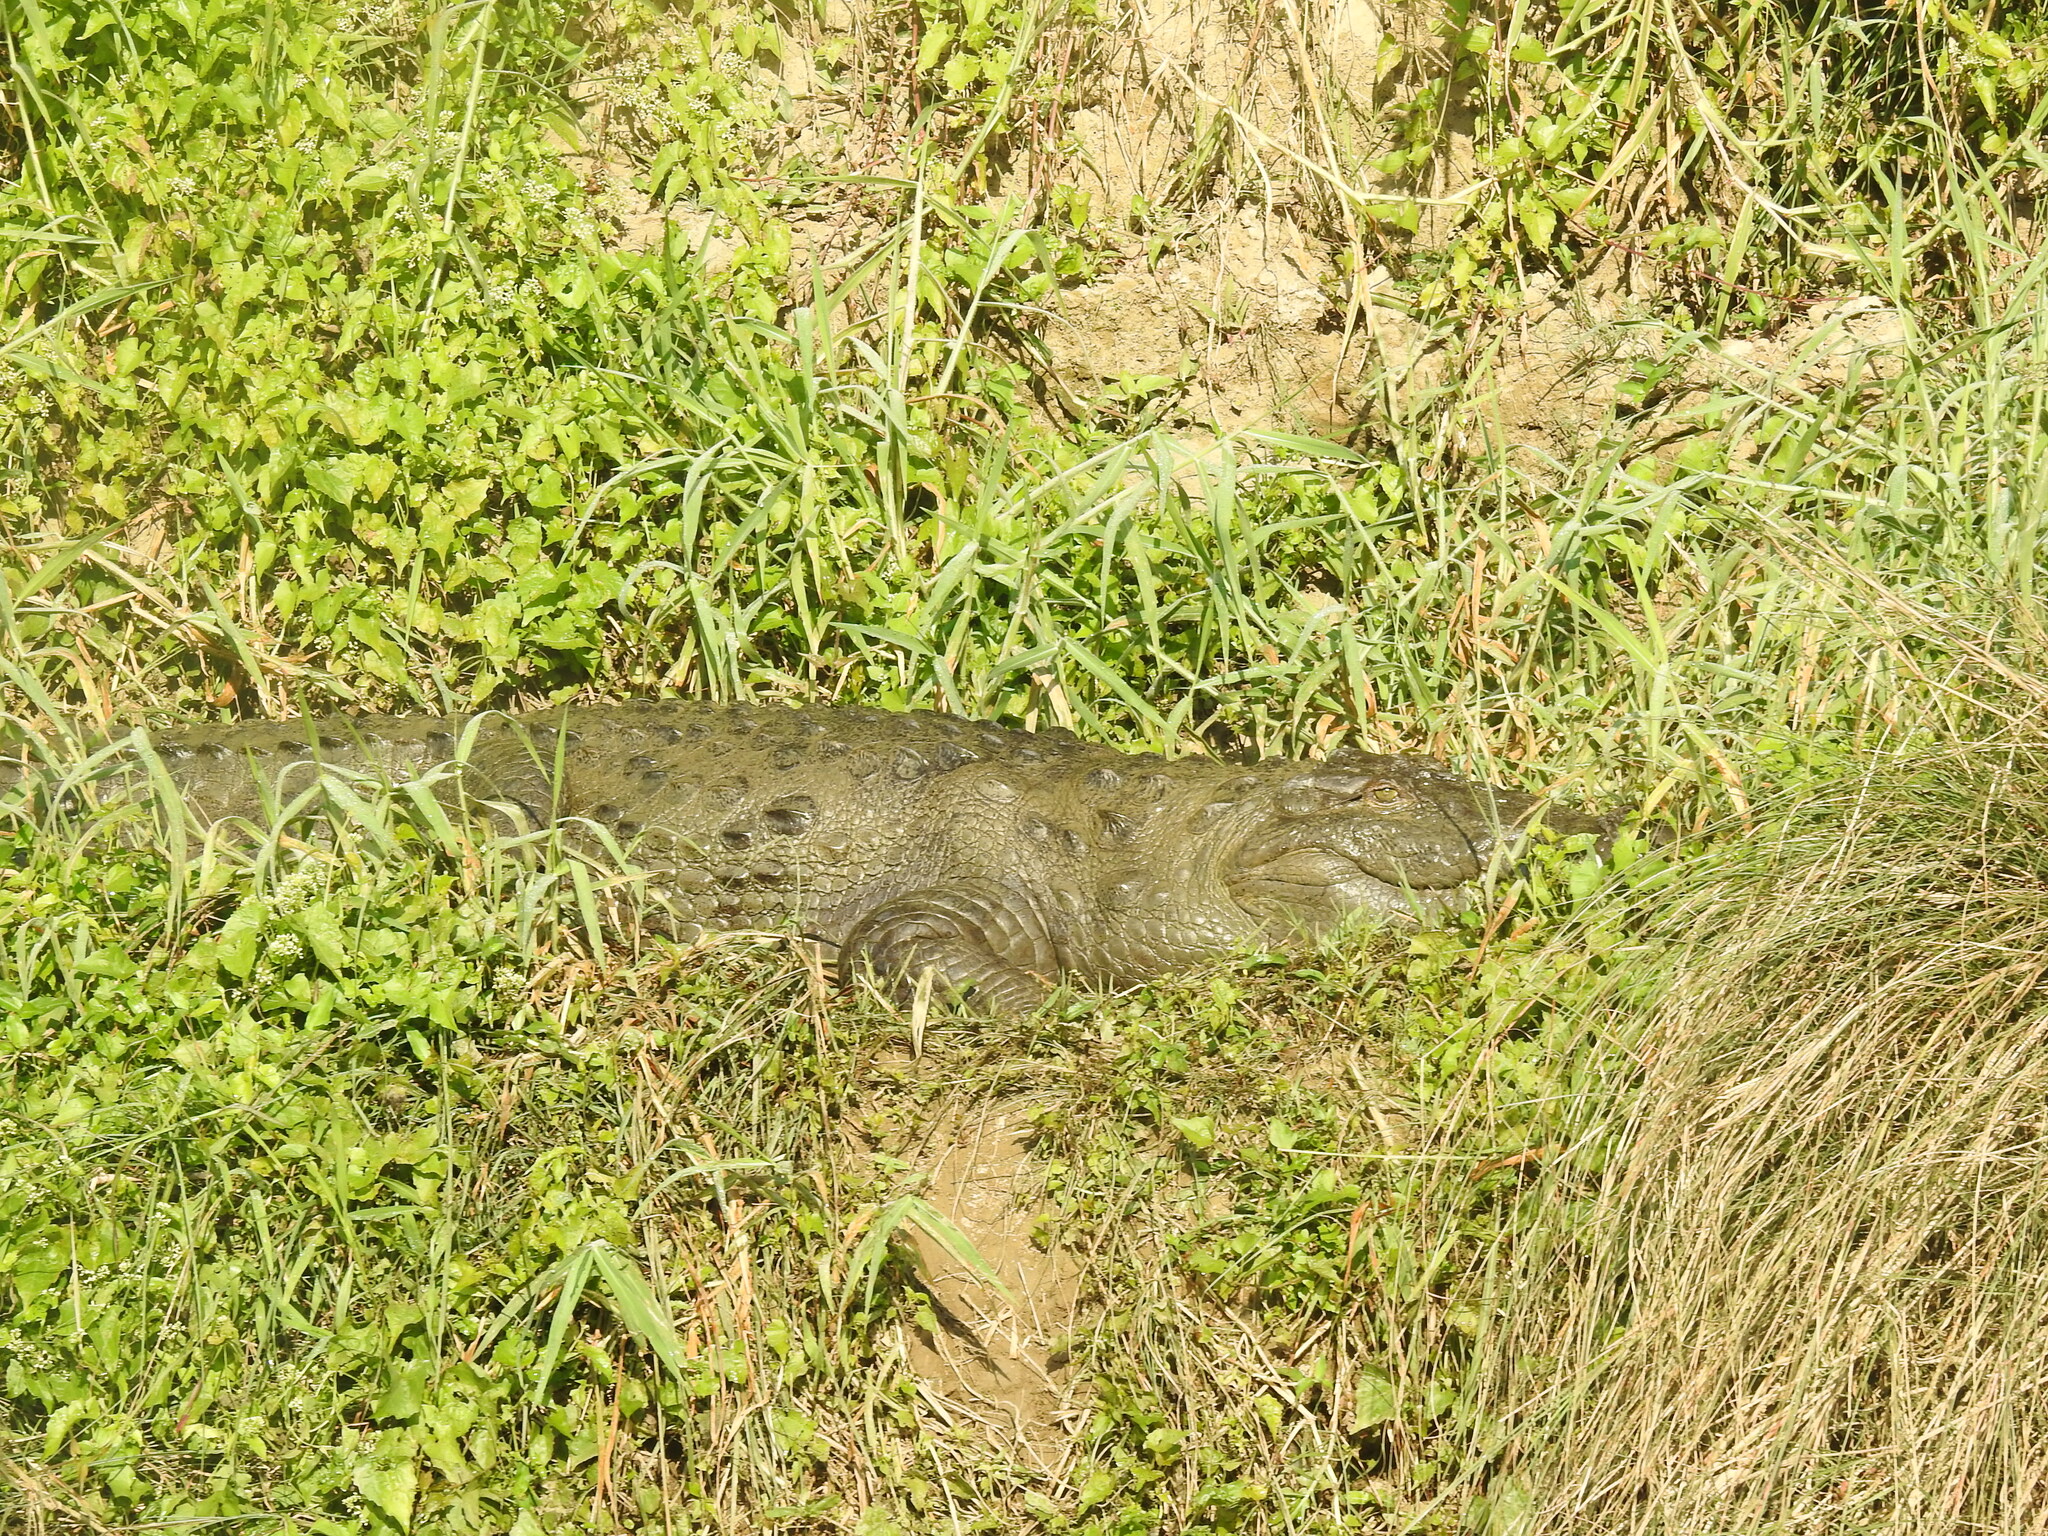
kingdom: Animalia
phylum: Chordata
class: Crocodylia
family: Crocodylidae
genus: Crocodylus
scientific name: Crocodylus palustris
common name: Mugger crocodile
